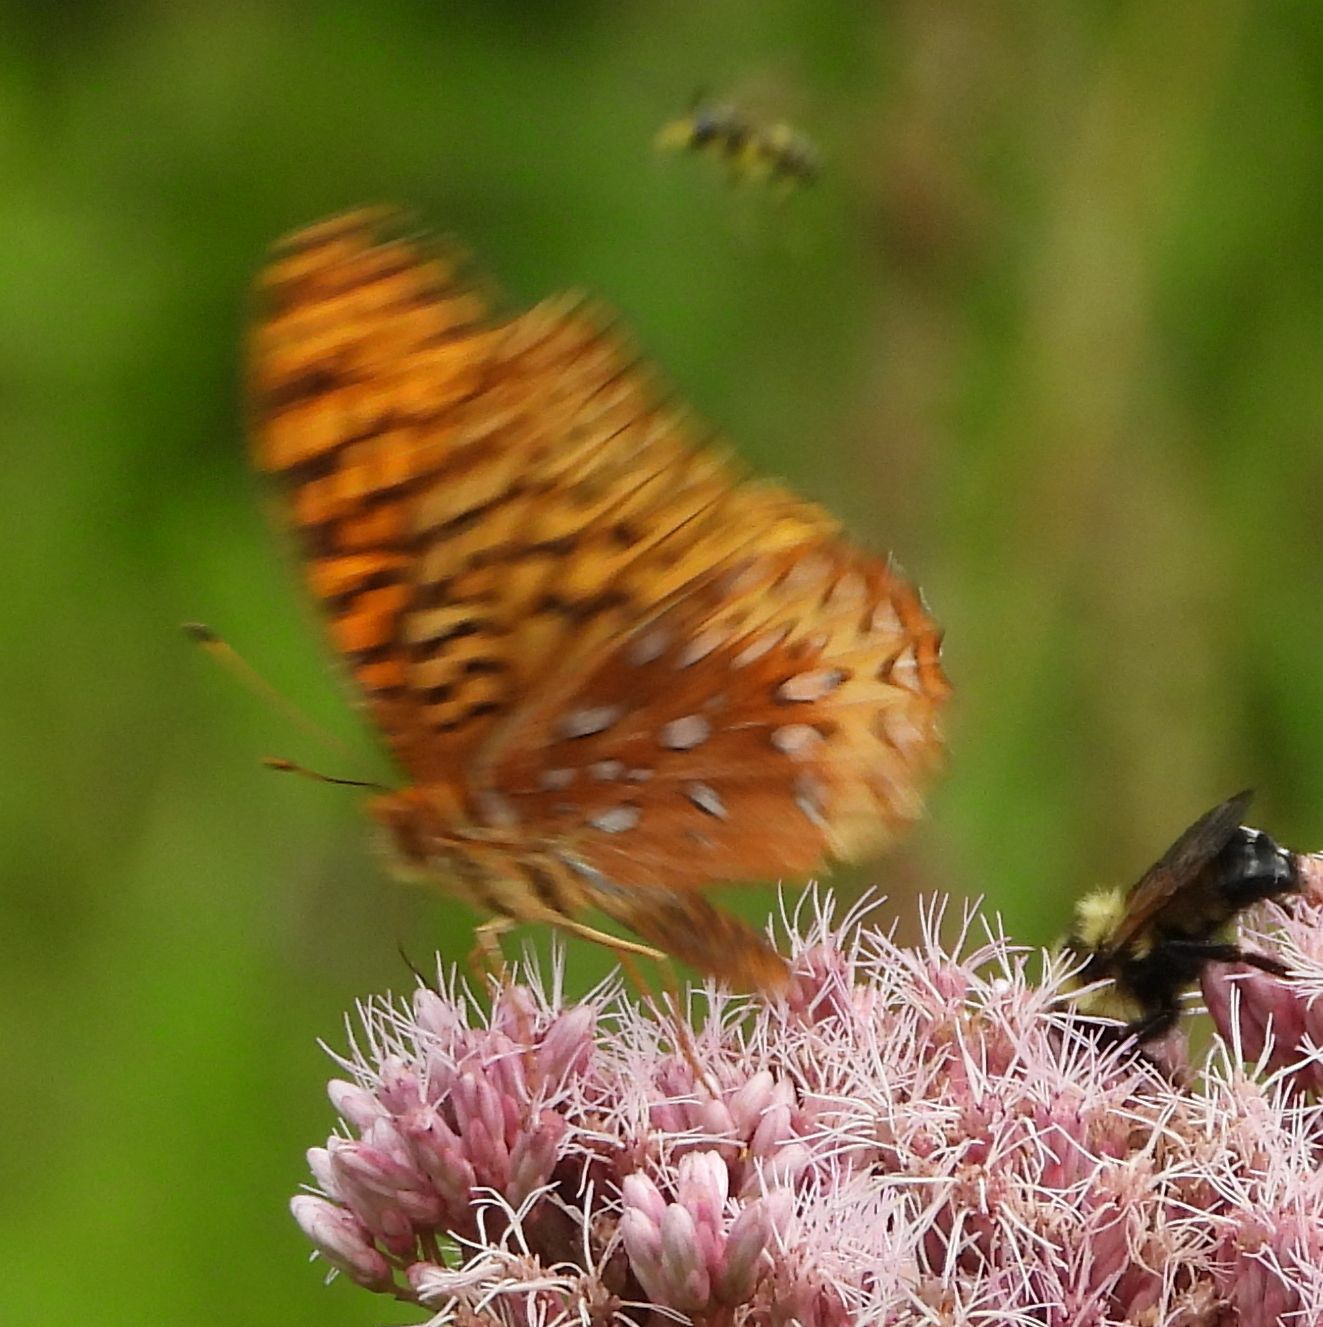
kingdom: Animalia
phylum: Arthropoda
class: Insecta
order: Lepidoptera
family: Nymphalidae
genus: Speyeria
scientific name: Speyeria cybele
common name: Great spangled fritillary
